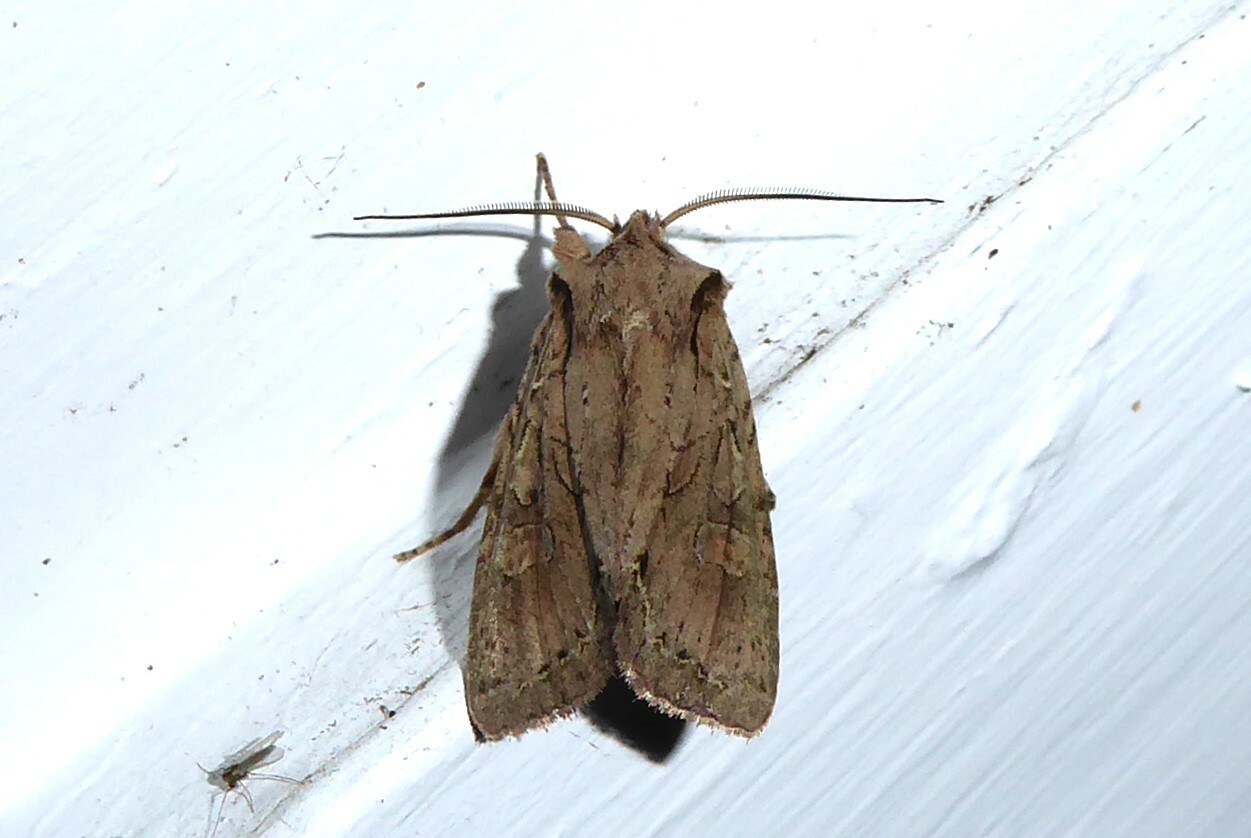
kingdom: Animalia
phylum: Arthropoda
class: Insecta
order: Lepidoptera
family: Noctuidae
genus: Ichneutica
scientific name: Ichneutica
